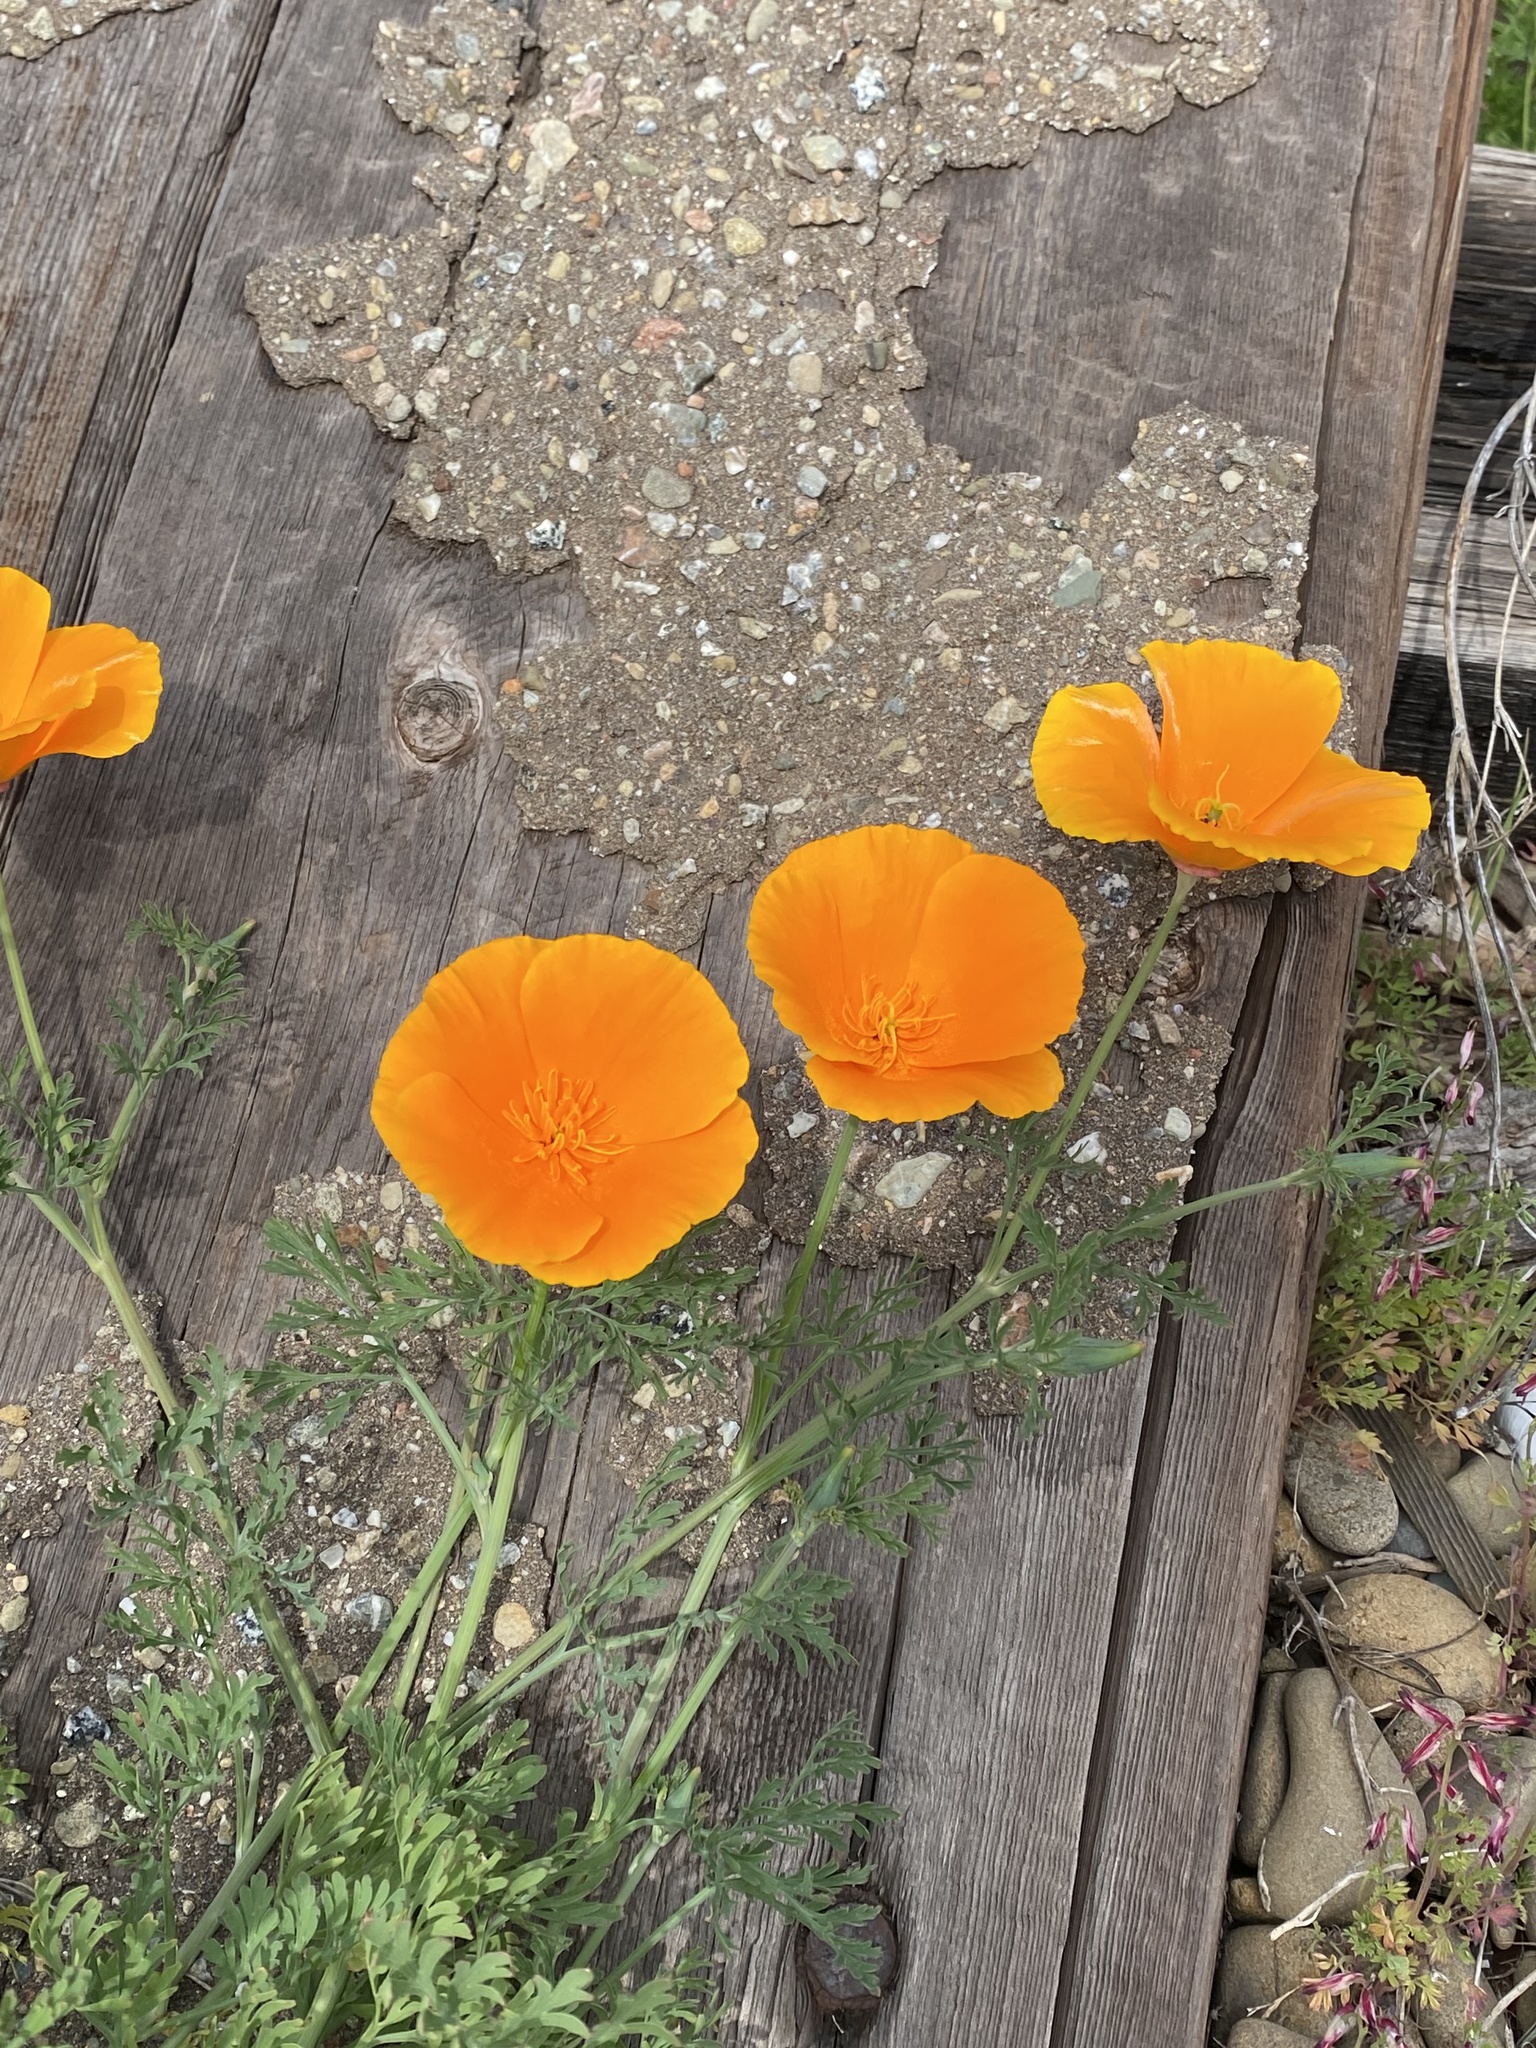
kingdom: Plantae
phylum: Tracheophyta
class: Magnoliopsida
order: Ranunculales
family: Papaveraceae
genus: Eschscholzia
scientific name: Eschscholzia californica
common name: California poppy
